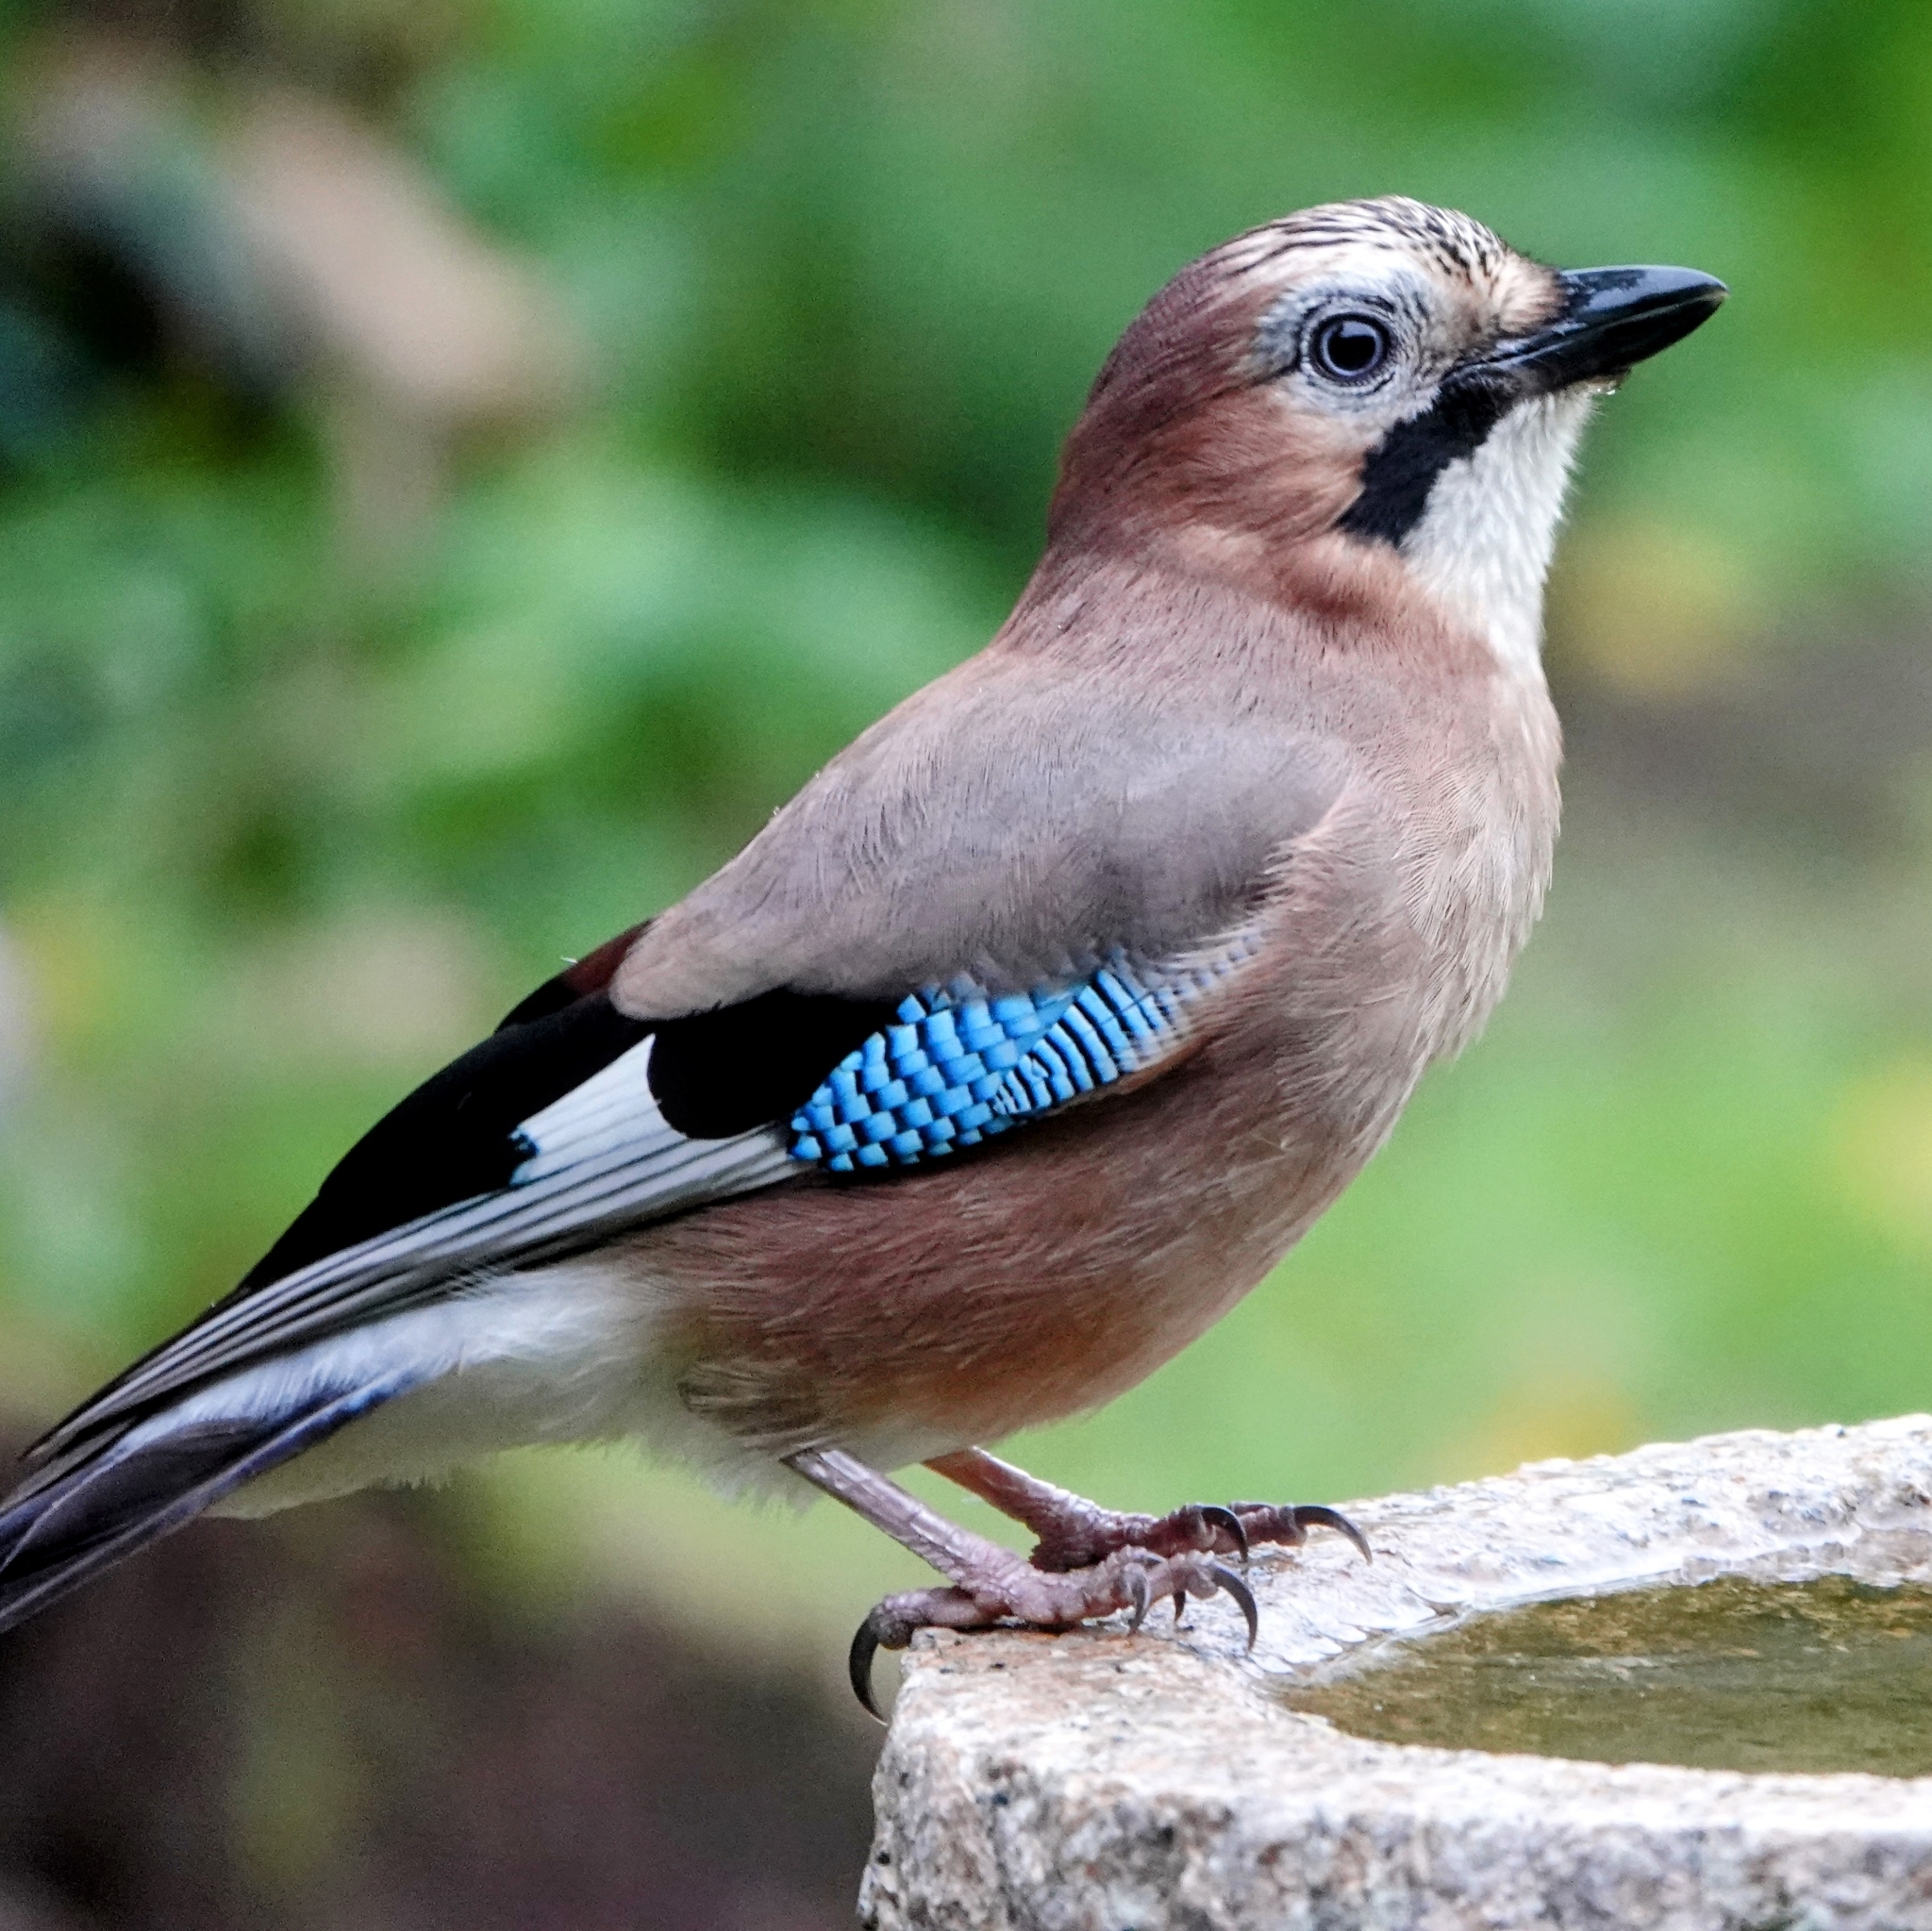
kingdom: Animalia
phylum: Chordata
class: Aves
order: Passeriformes
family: Corvidae
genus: Garrulus
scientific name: Garrulus glandarius
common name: Eurasian jay
